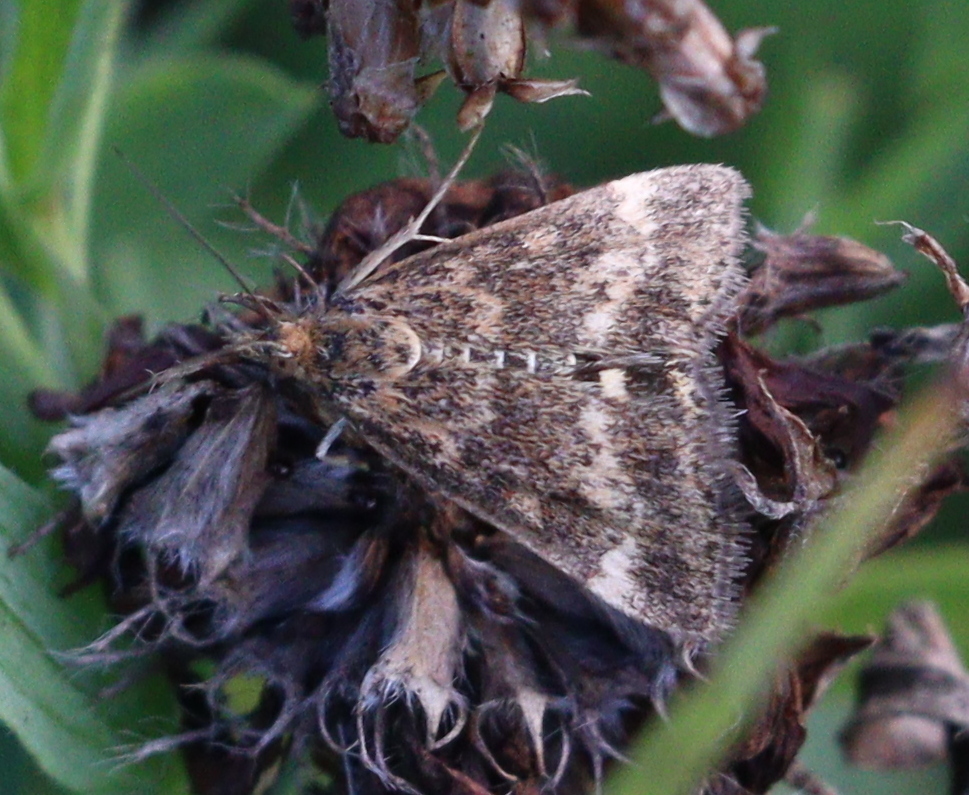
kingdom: Animalia
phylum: Arthropoda
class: Insecta
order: Lepidoptera
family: Crambidae
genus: Pyrausta
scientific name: Pyrausta despicata
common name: Straw-barred pearl
